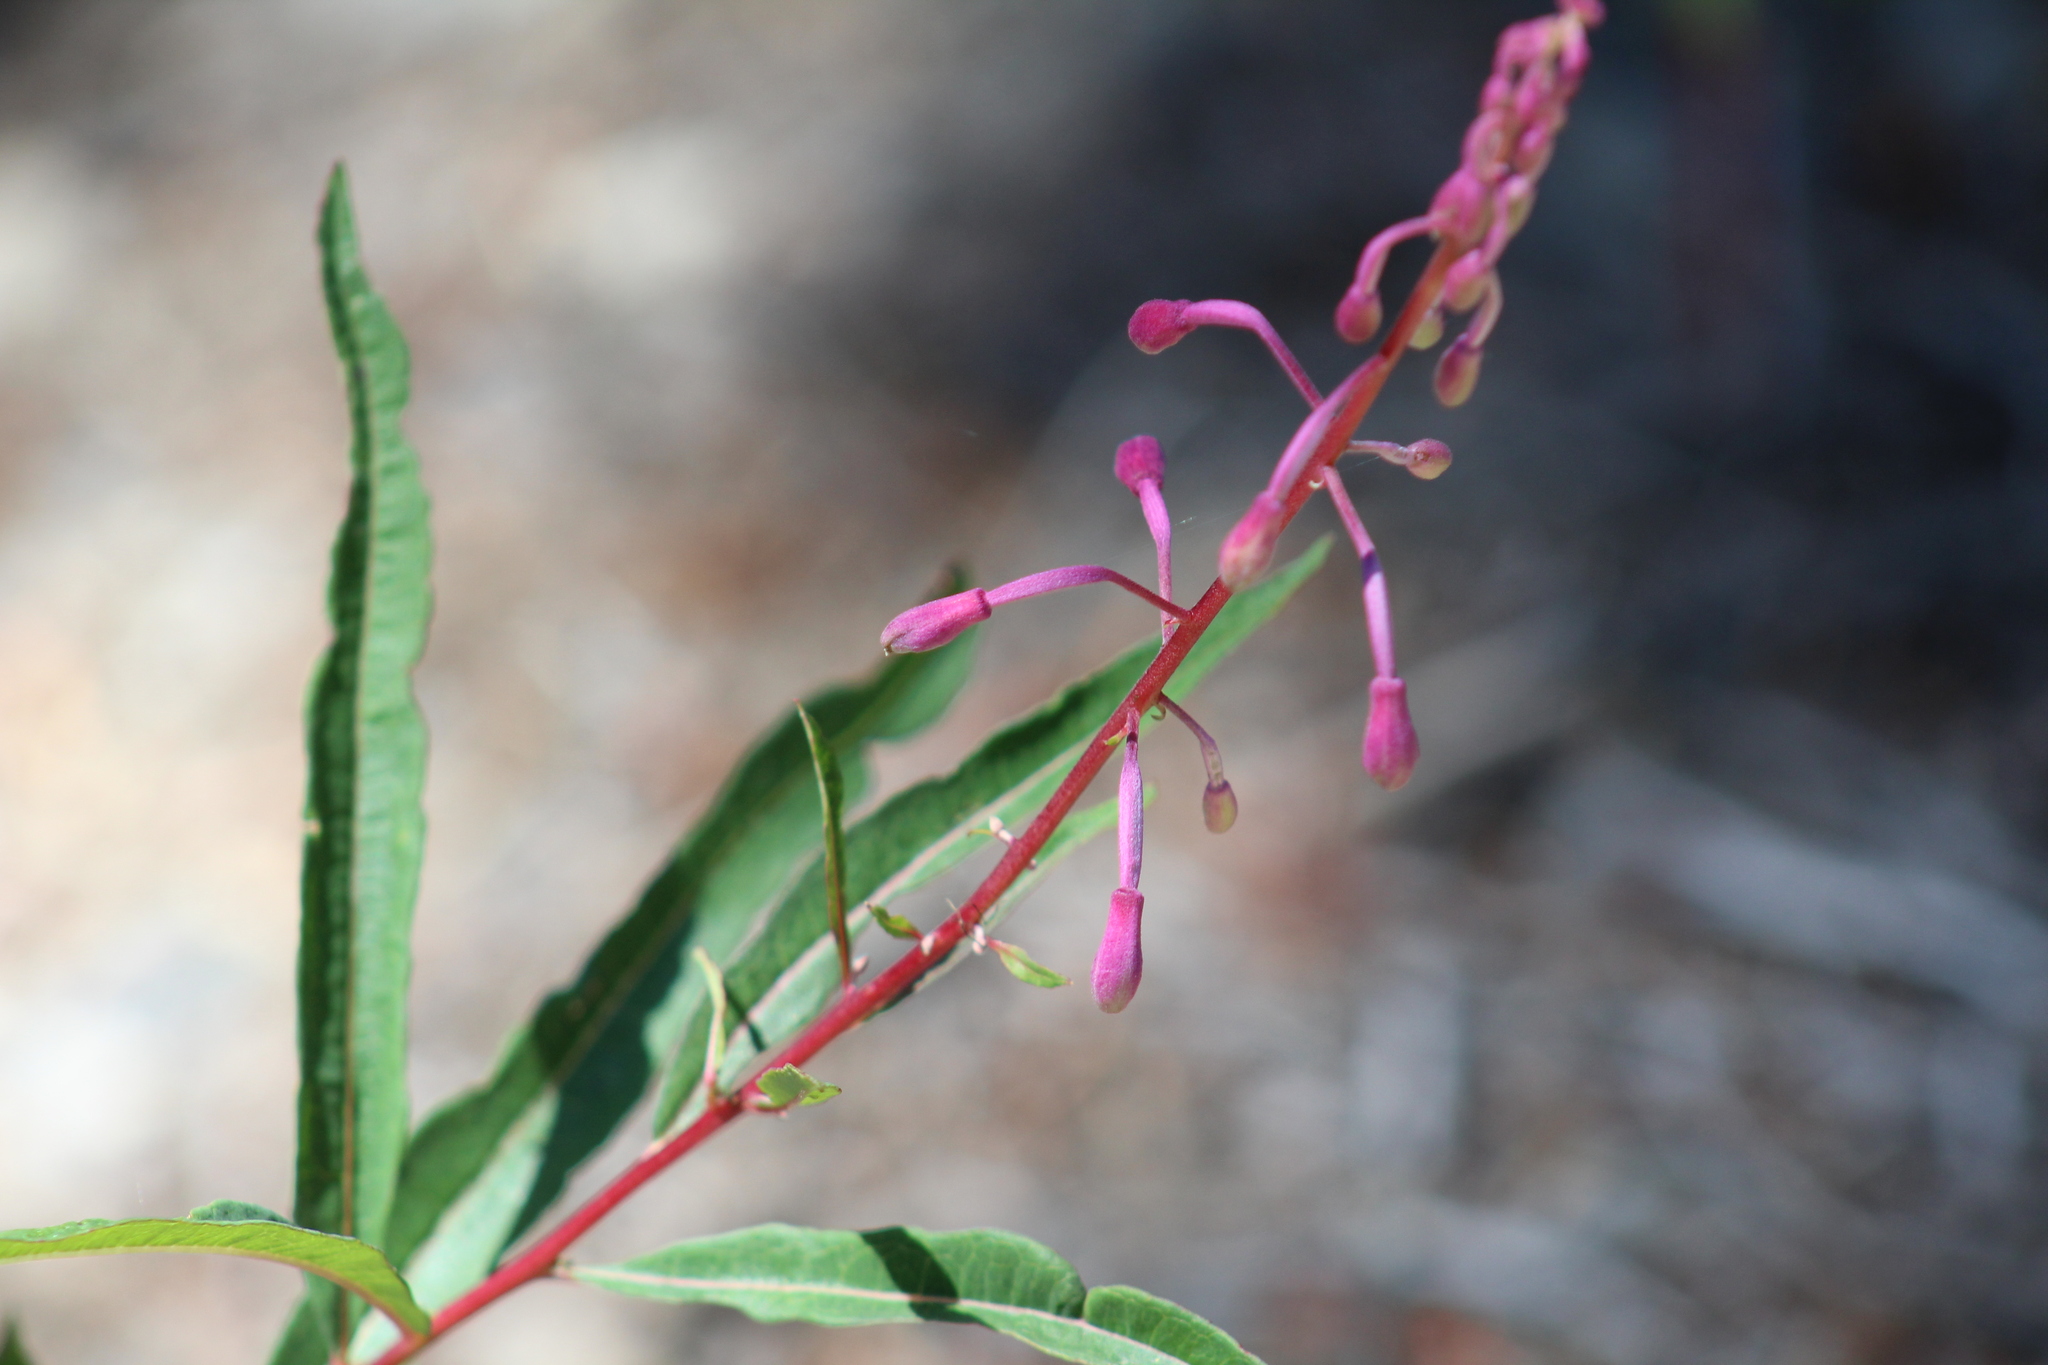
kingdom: Plantae
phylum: Tracheophyta
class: Magnoliopsida
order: Myrtales
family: Onagraceae
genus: Chamaenerion
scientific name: Chamaenerion angustifolium
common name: Fireweed
